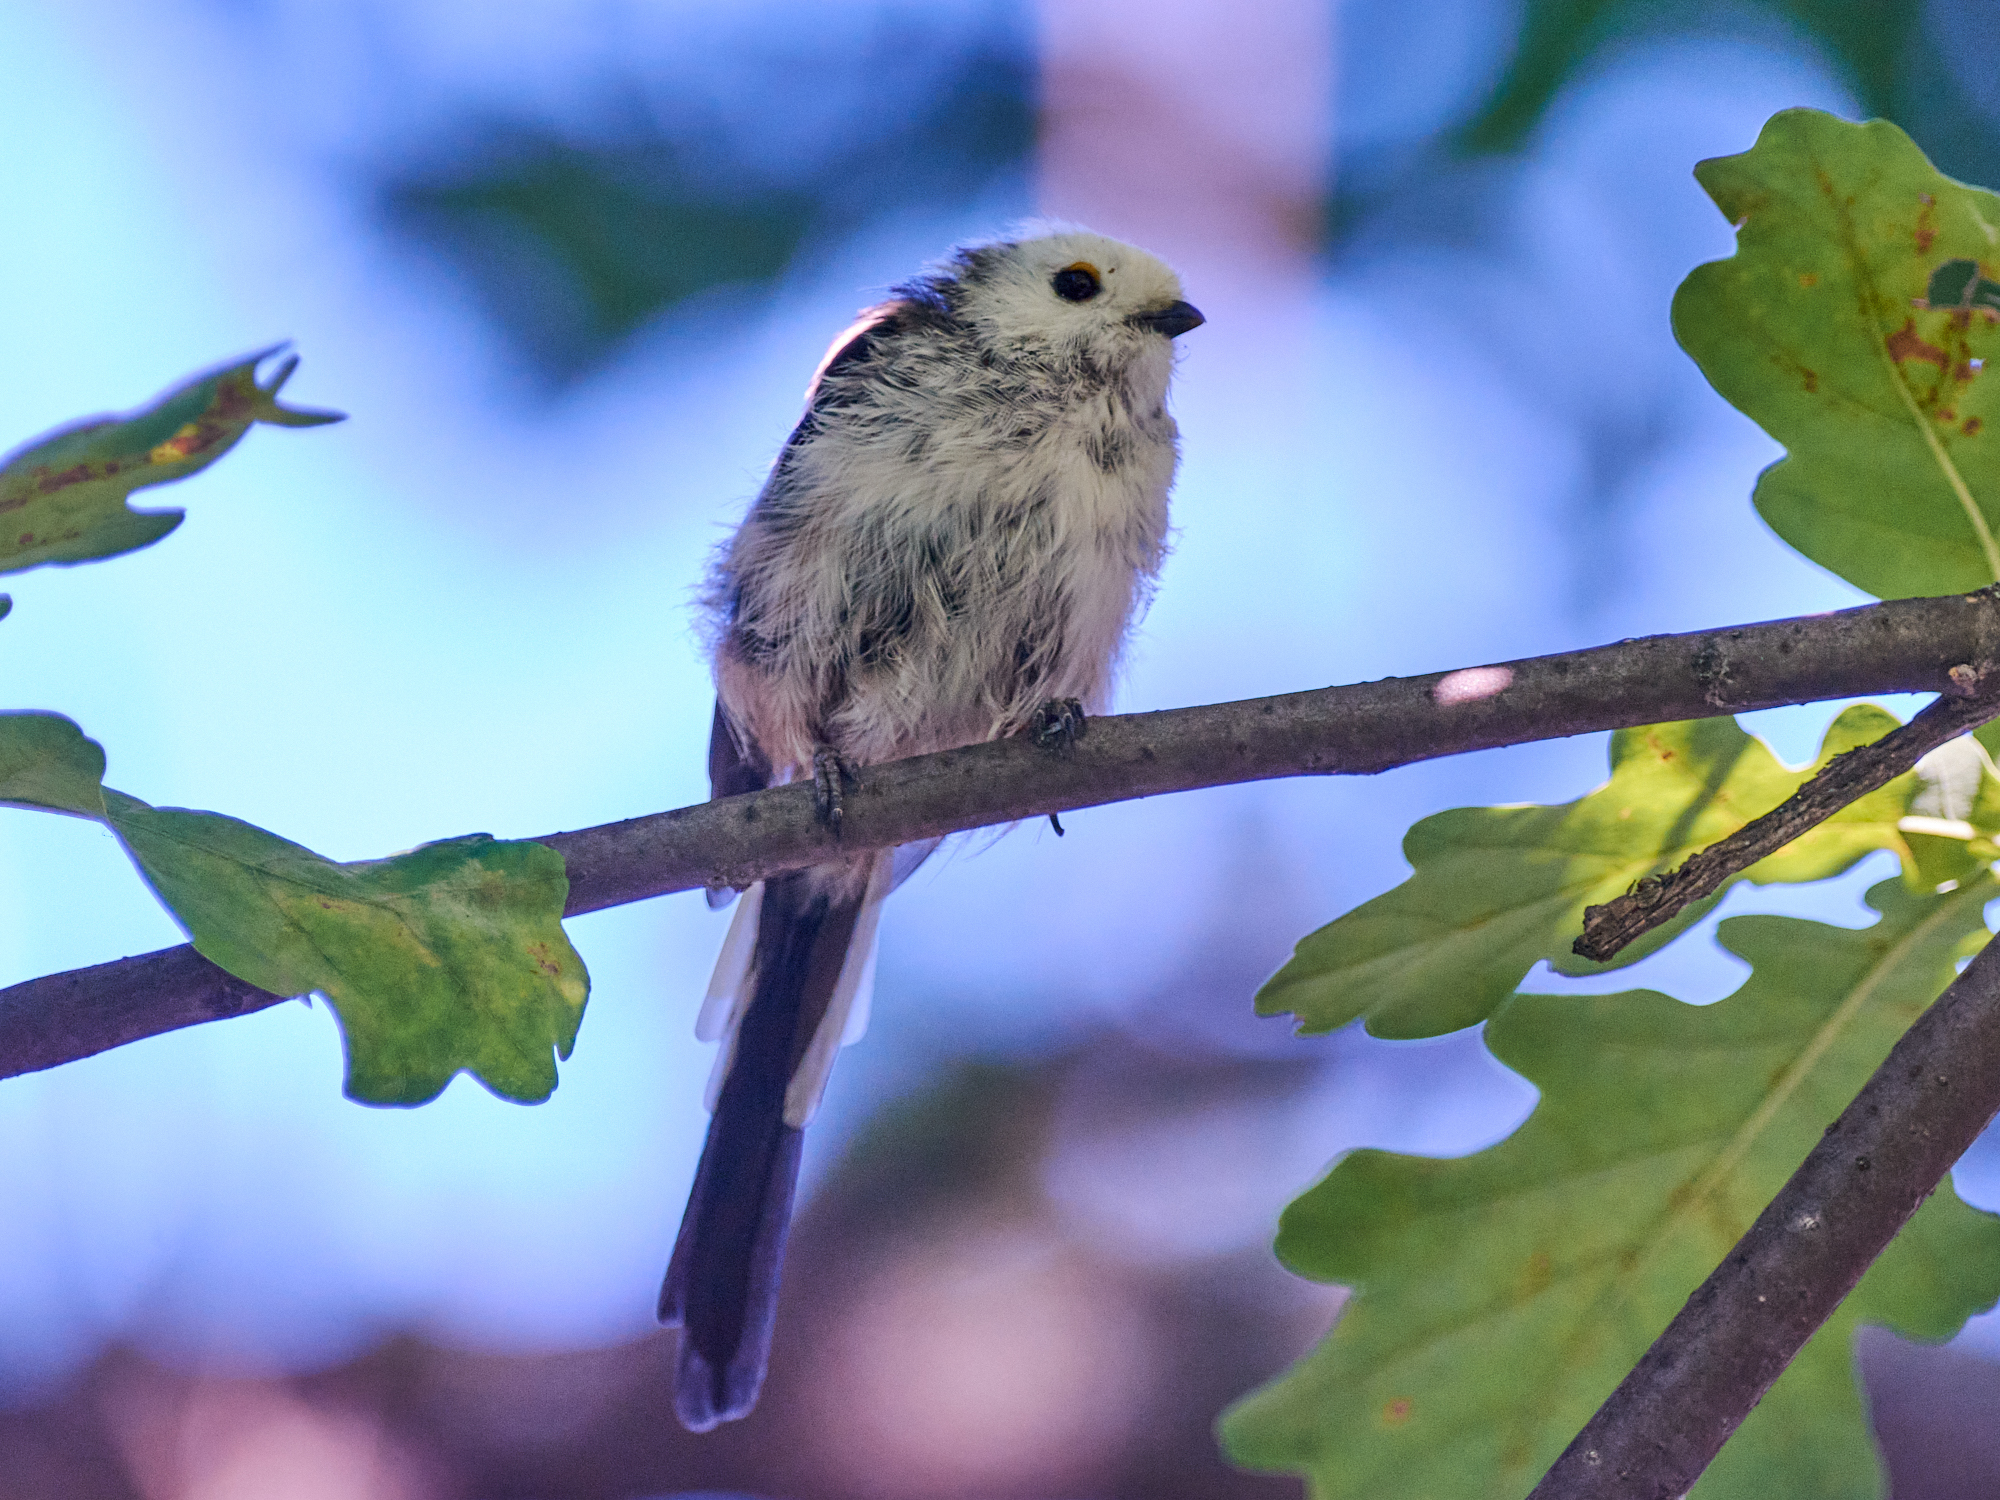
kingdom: Animalia
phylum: Chordata
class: Aves
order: Passeriformes
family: Aegithalidae
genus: Aegithalos
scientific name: Aegithalos caudatus
